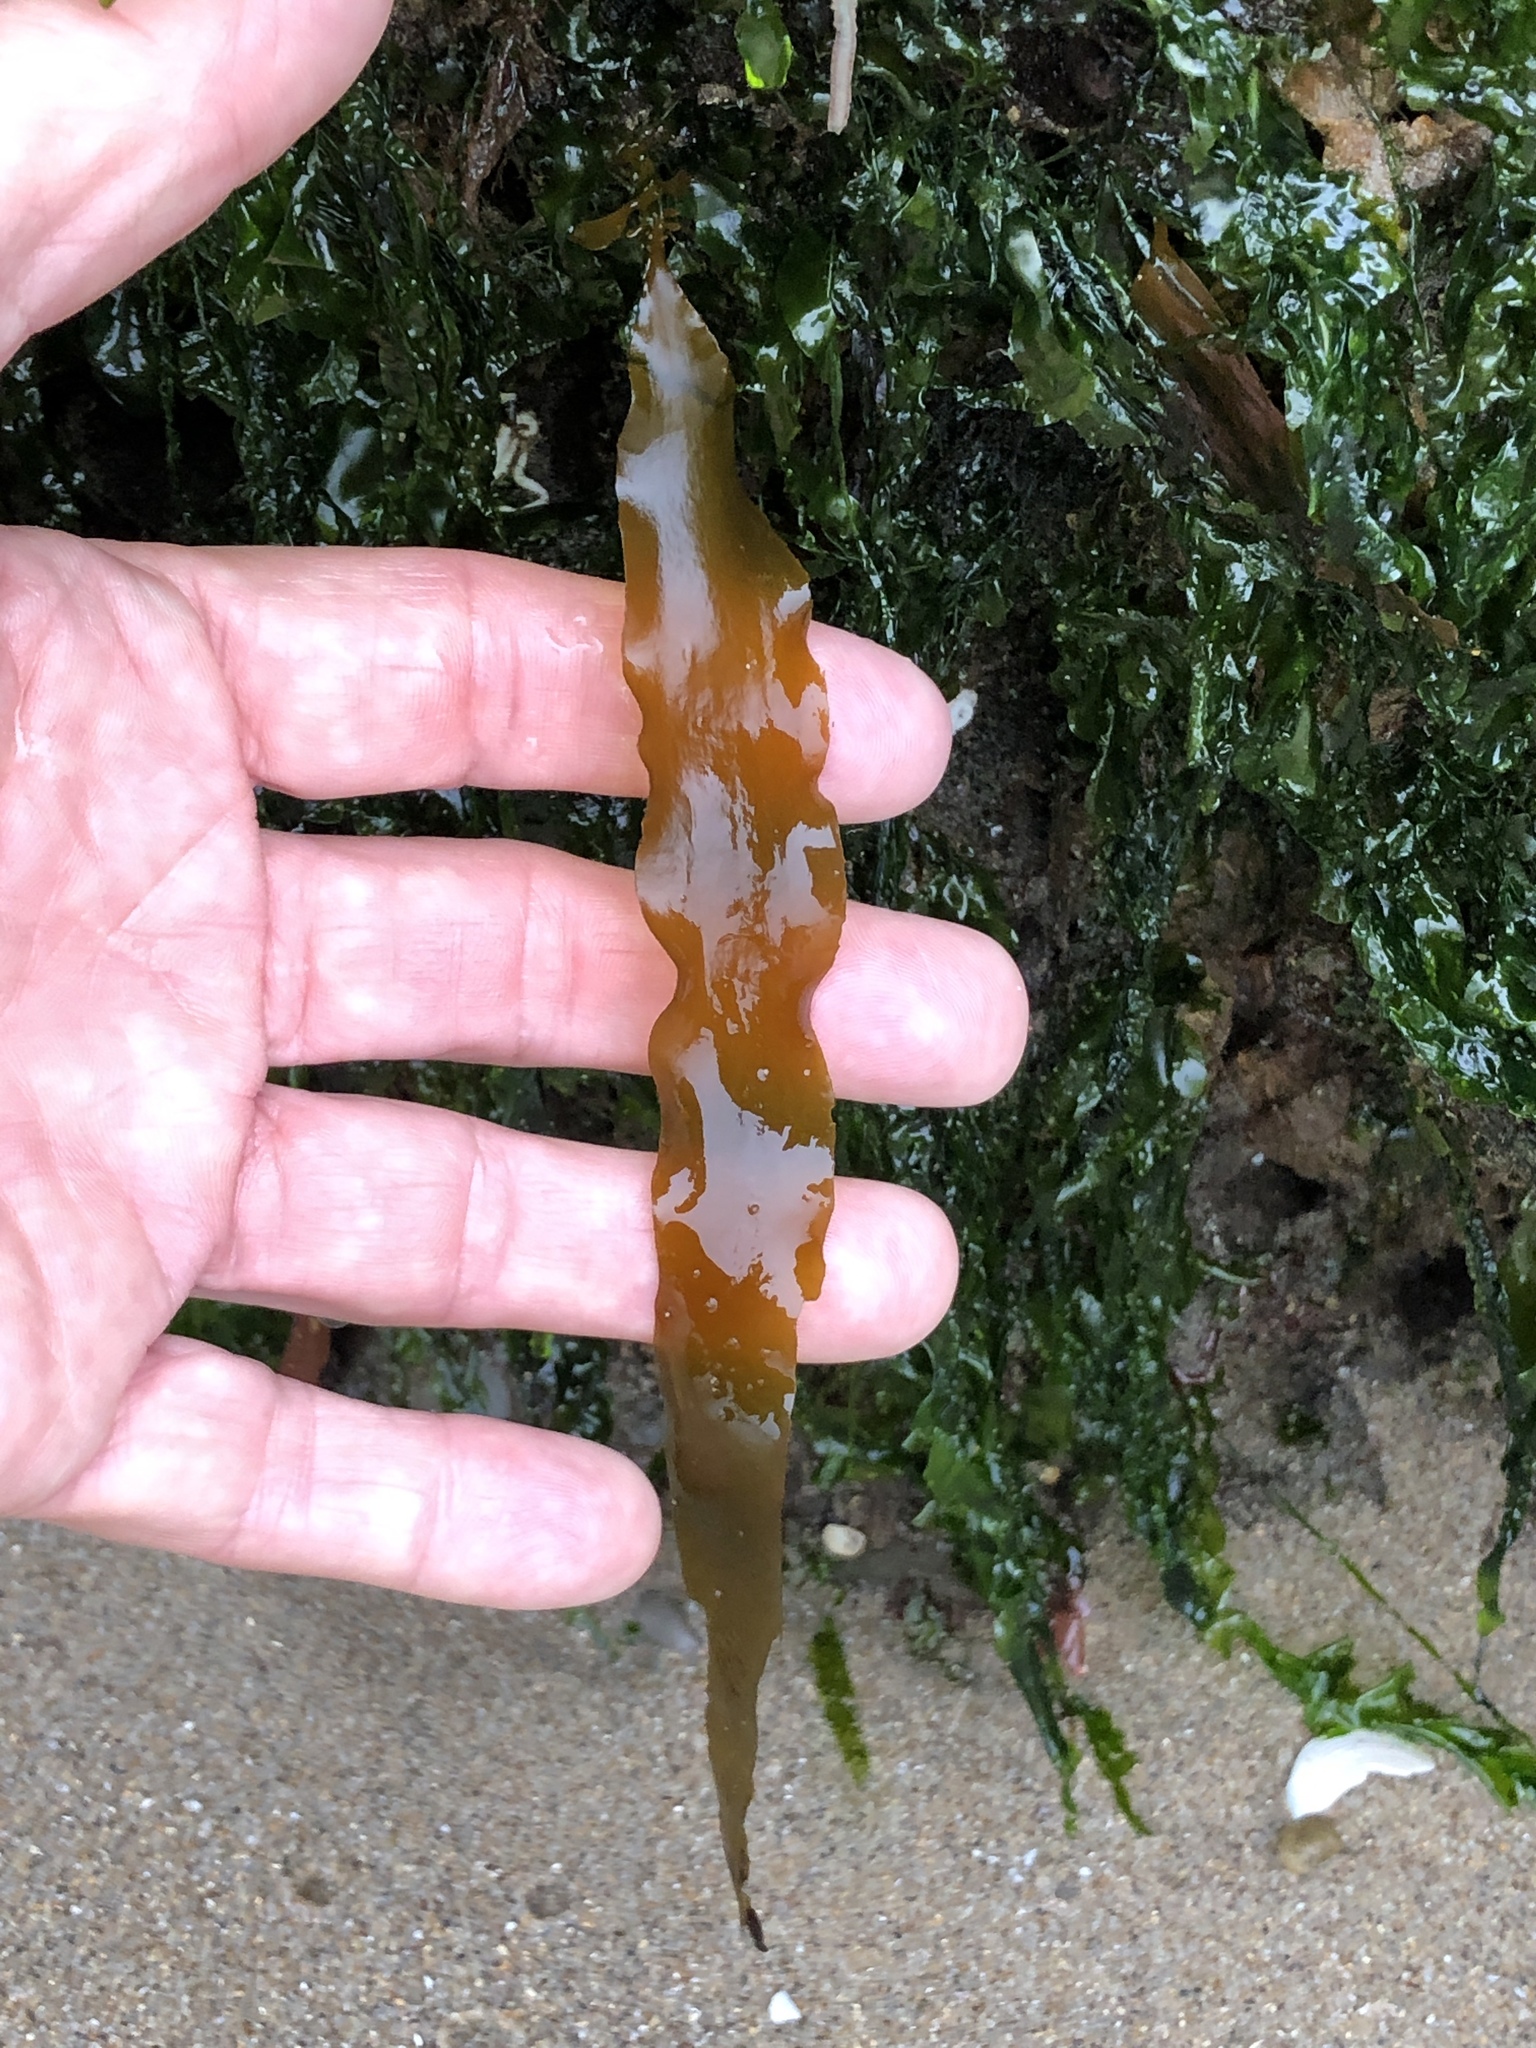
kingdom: Chromista
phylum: Ochrophyta
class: Phaeophyceae
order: Laminariales
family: Lessoniaceae
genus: Egregia
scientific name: Egregia menziesii
